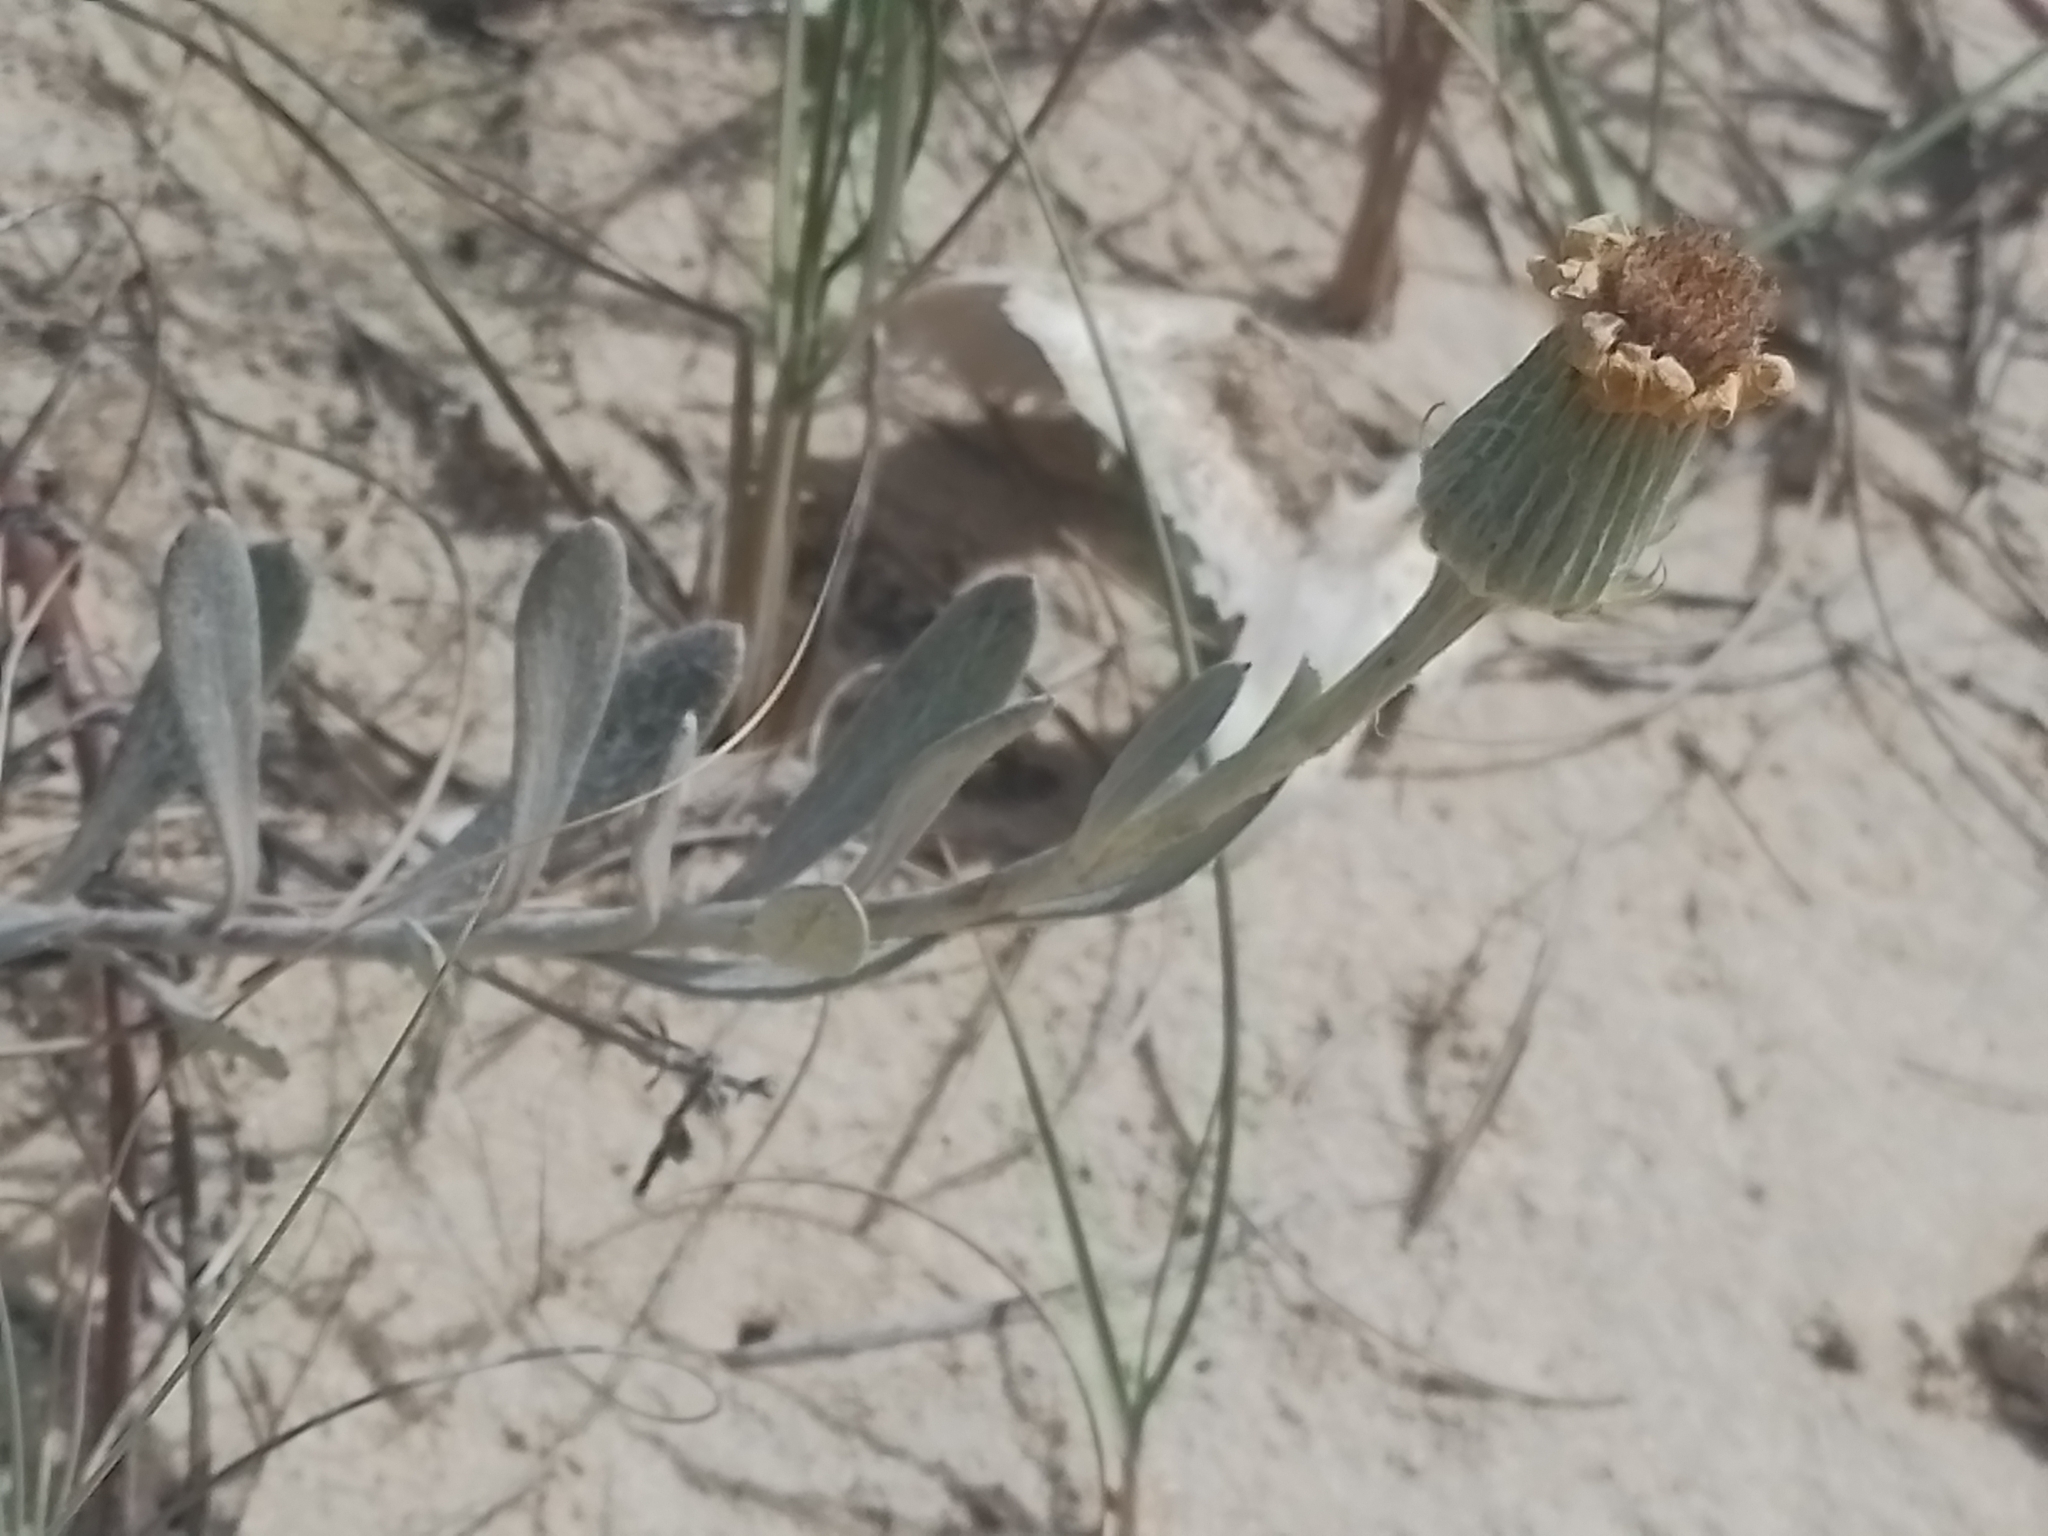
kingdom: Plantae
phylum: Tracheophyta
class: Magnoliopsida
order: Asterales
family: Asteraceae
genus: Senecio
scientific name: Senecio crassiflorus
